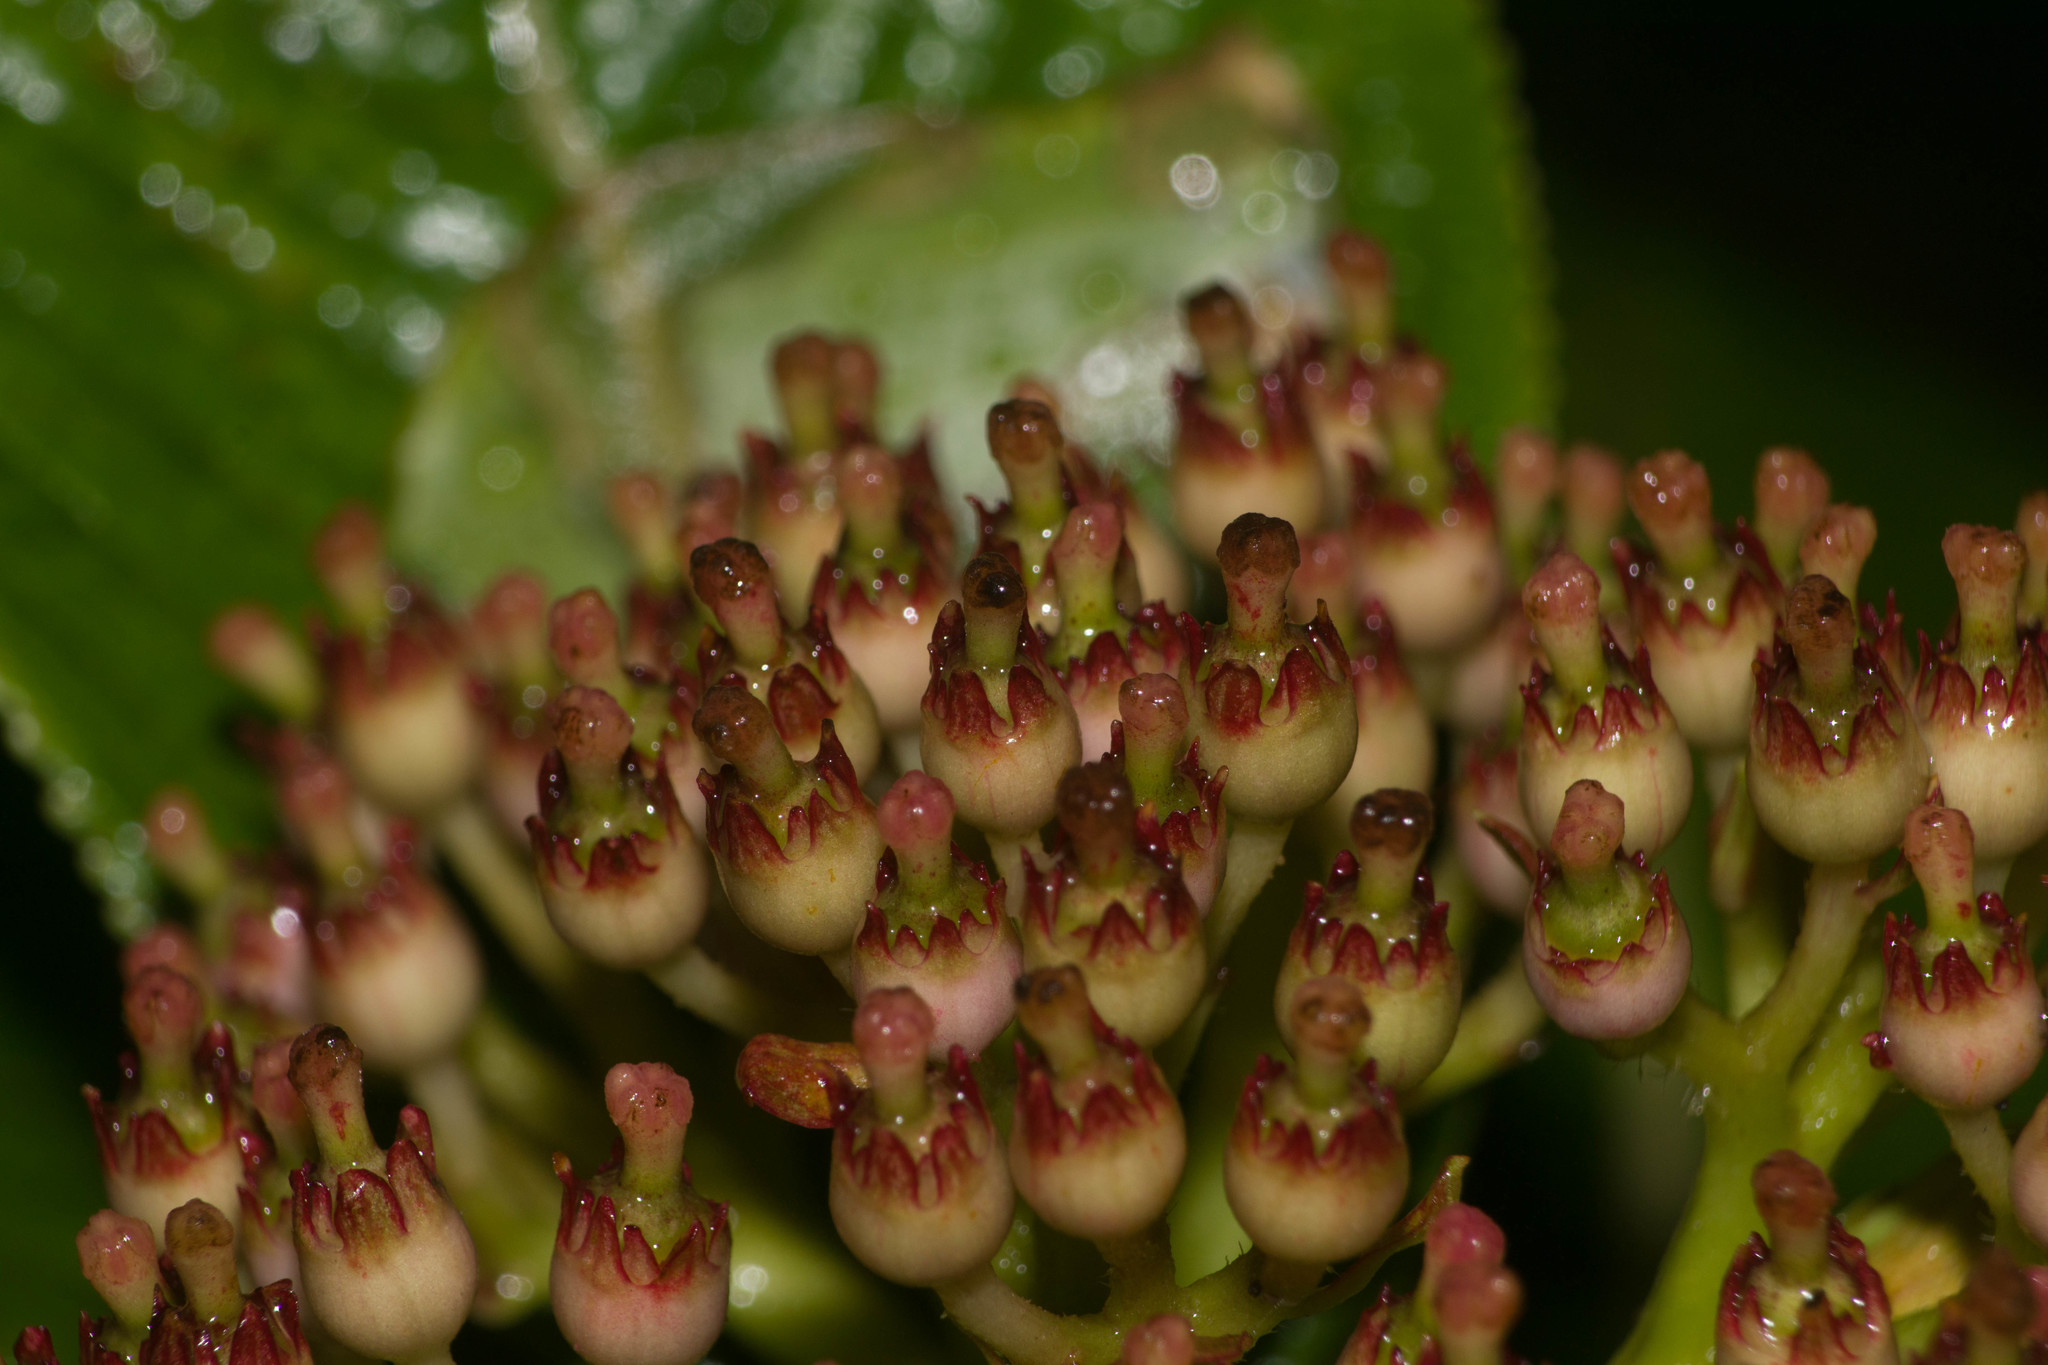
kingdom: Plantae
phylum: Tracheophyta
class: Magnoliopsida
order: Cornales
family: Hydrangeaceae
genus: Hydrangea
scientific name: Hydrangea arguta
